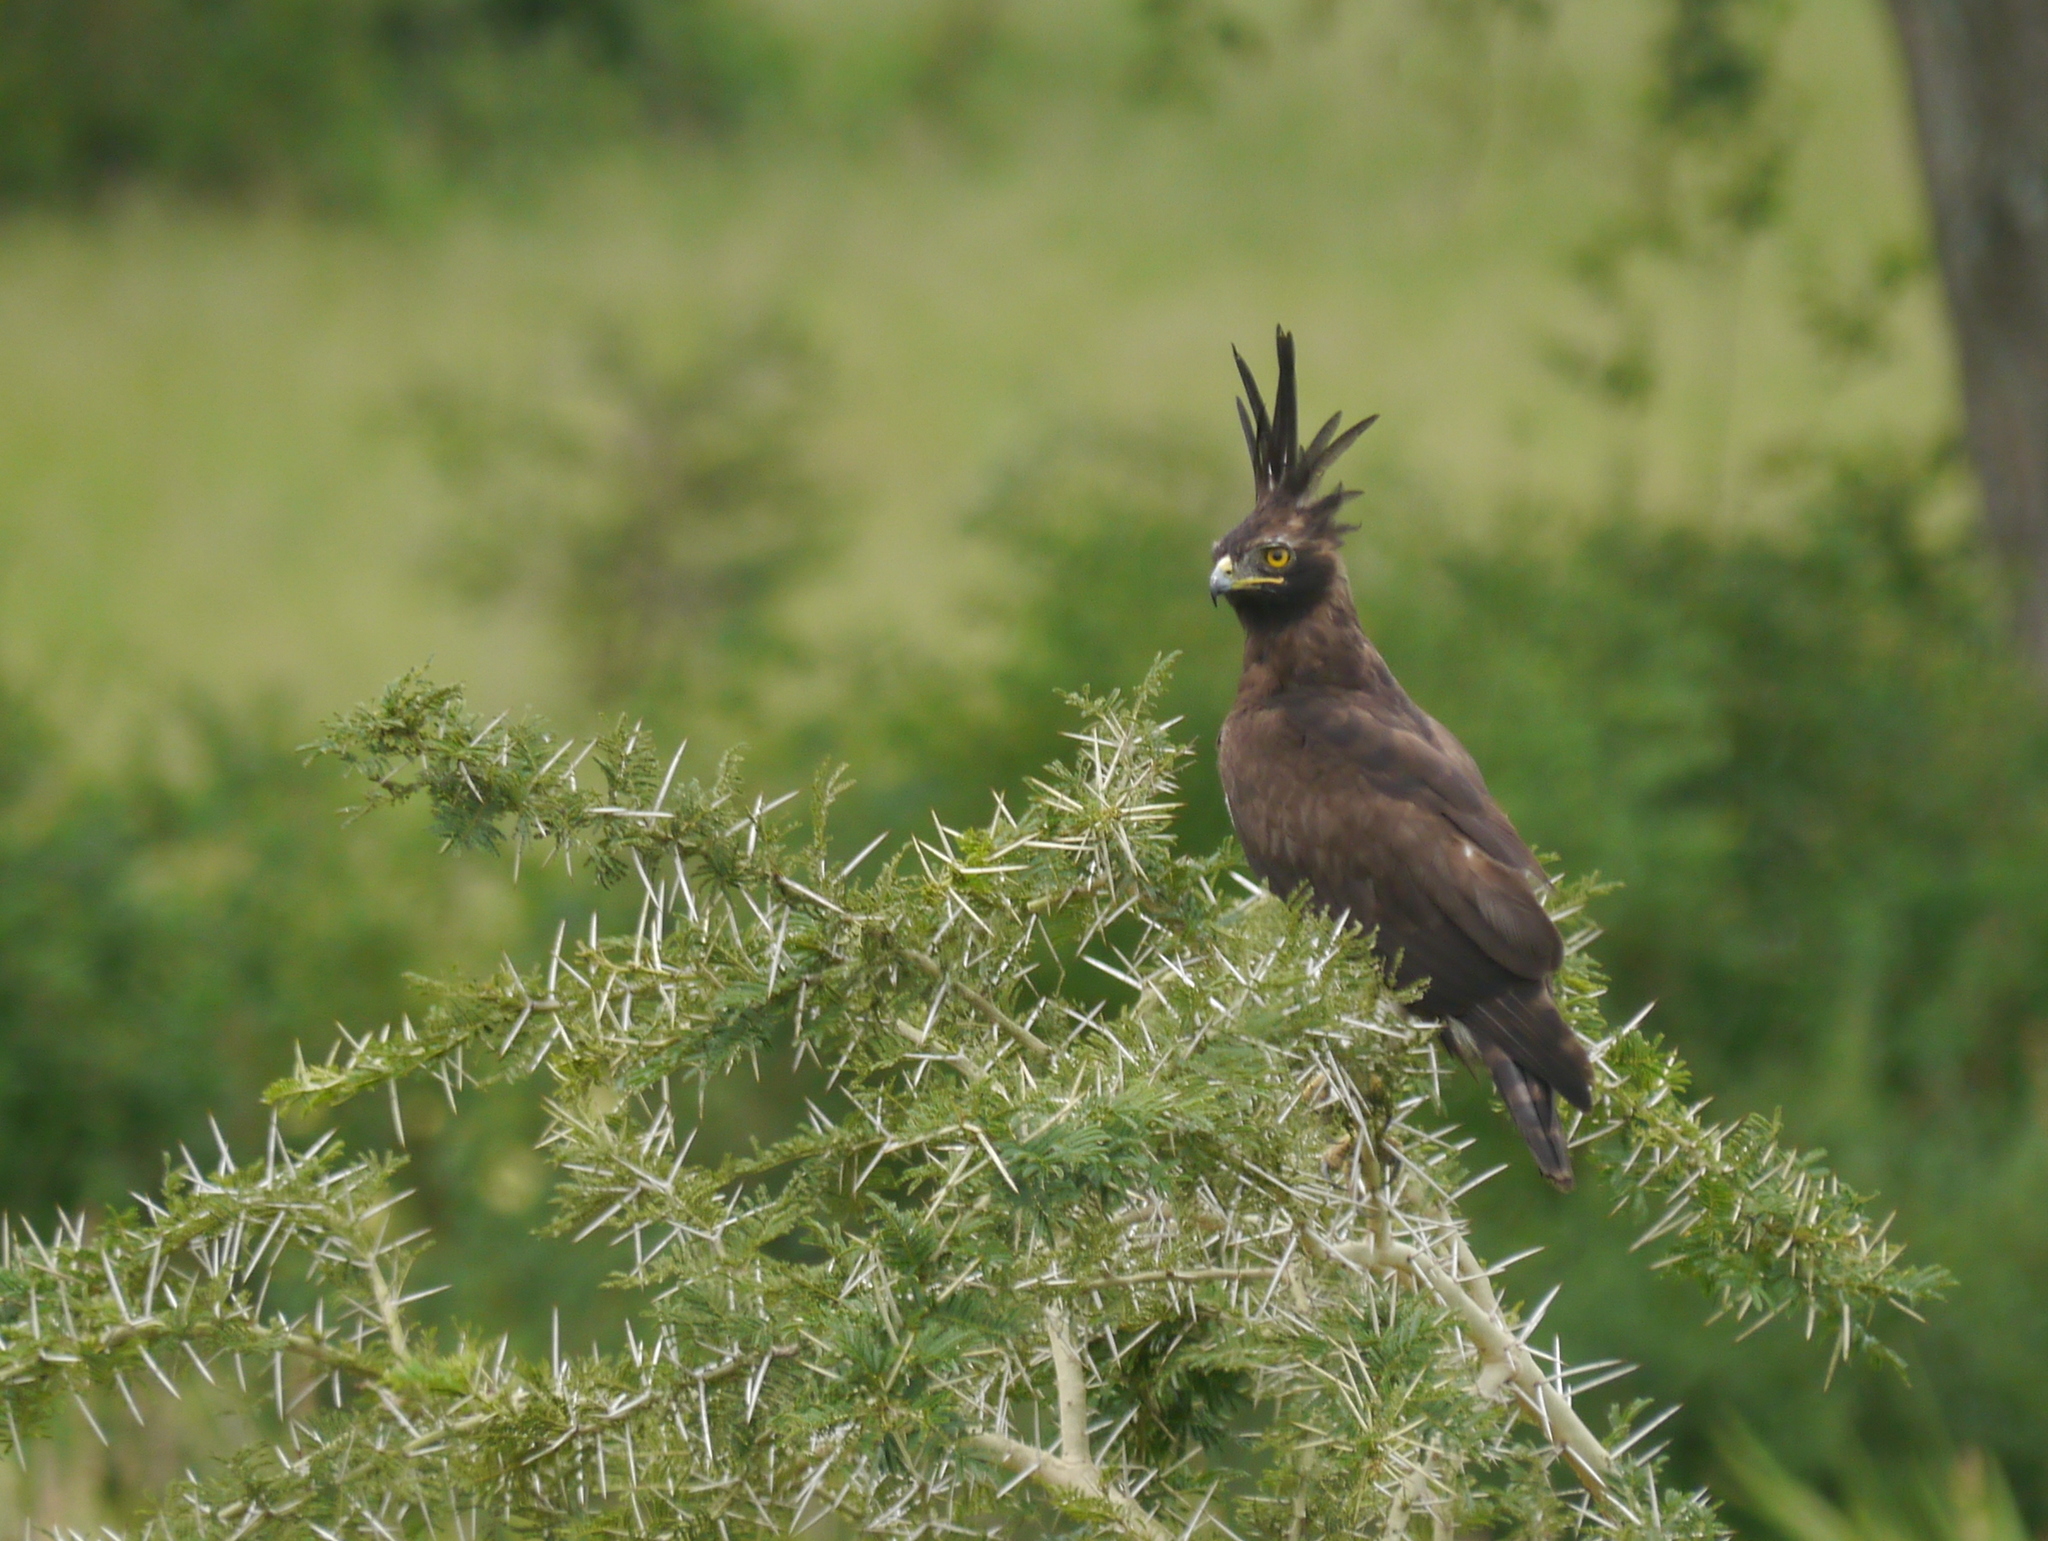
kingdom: Animalia
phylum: Chordata
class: Aves
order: Accipitriformes
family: Accipitridae
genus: Lophaetus
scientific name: Lophaetus occipitalis
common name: Long-crested eagle
